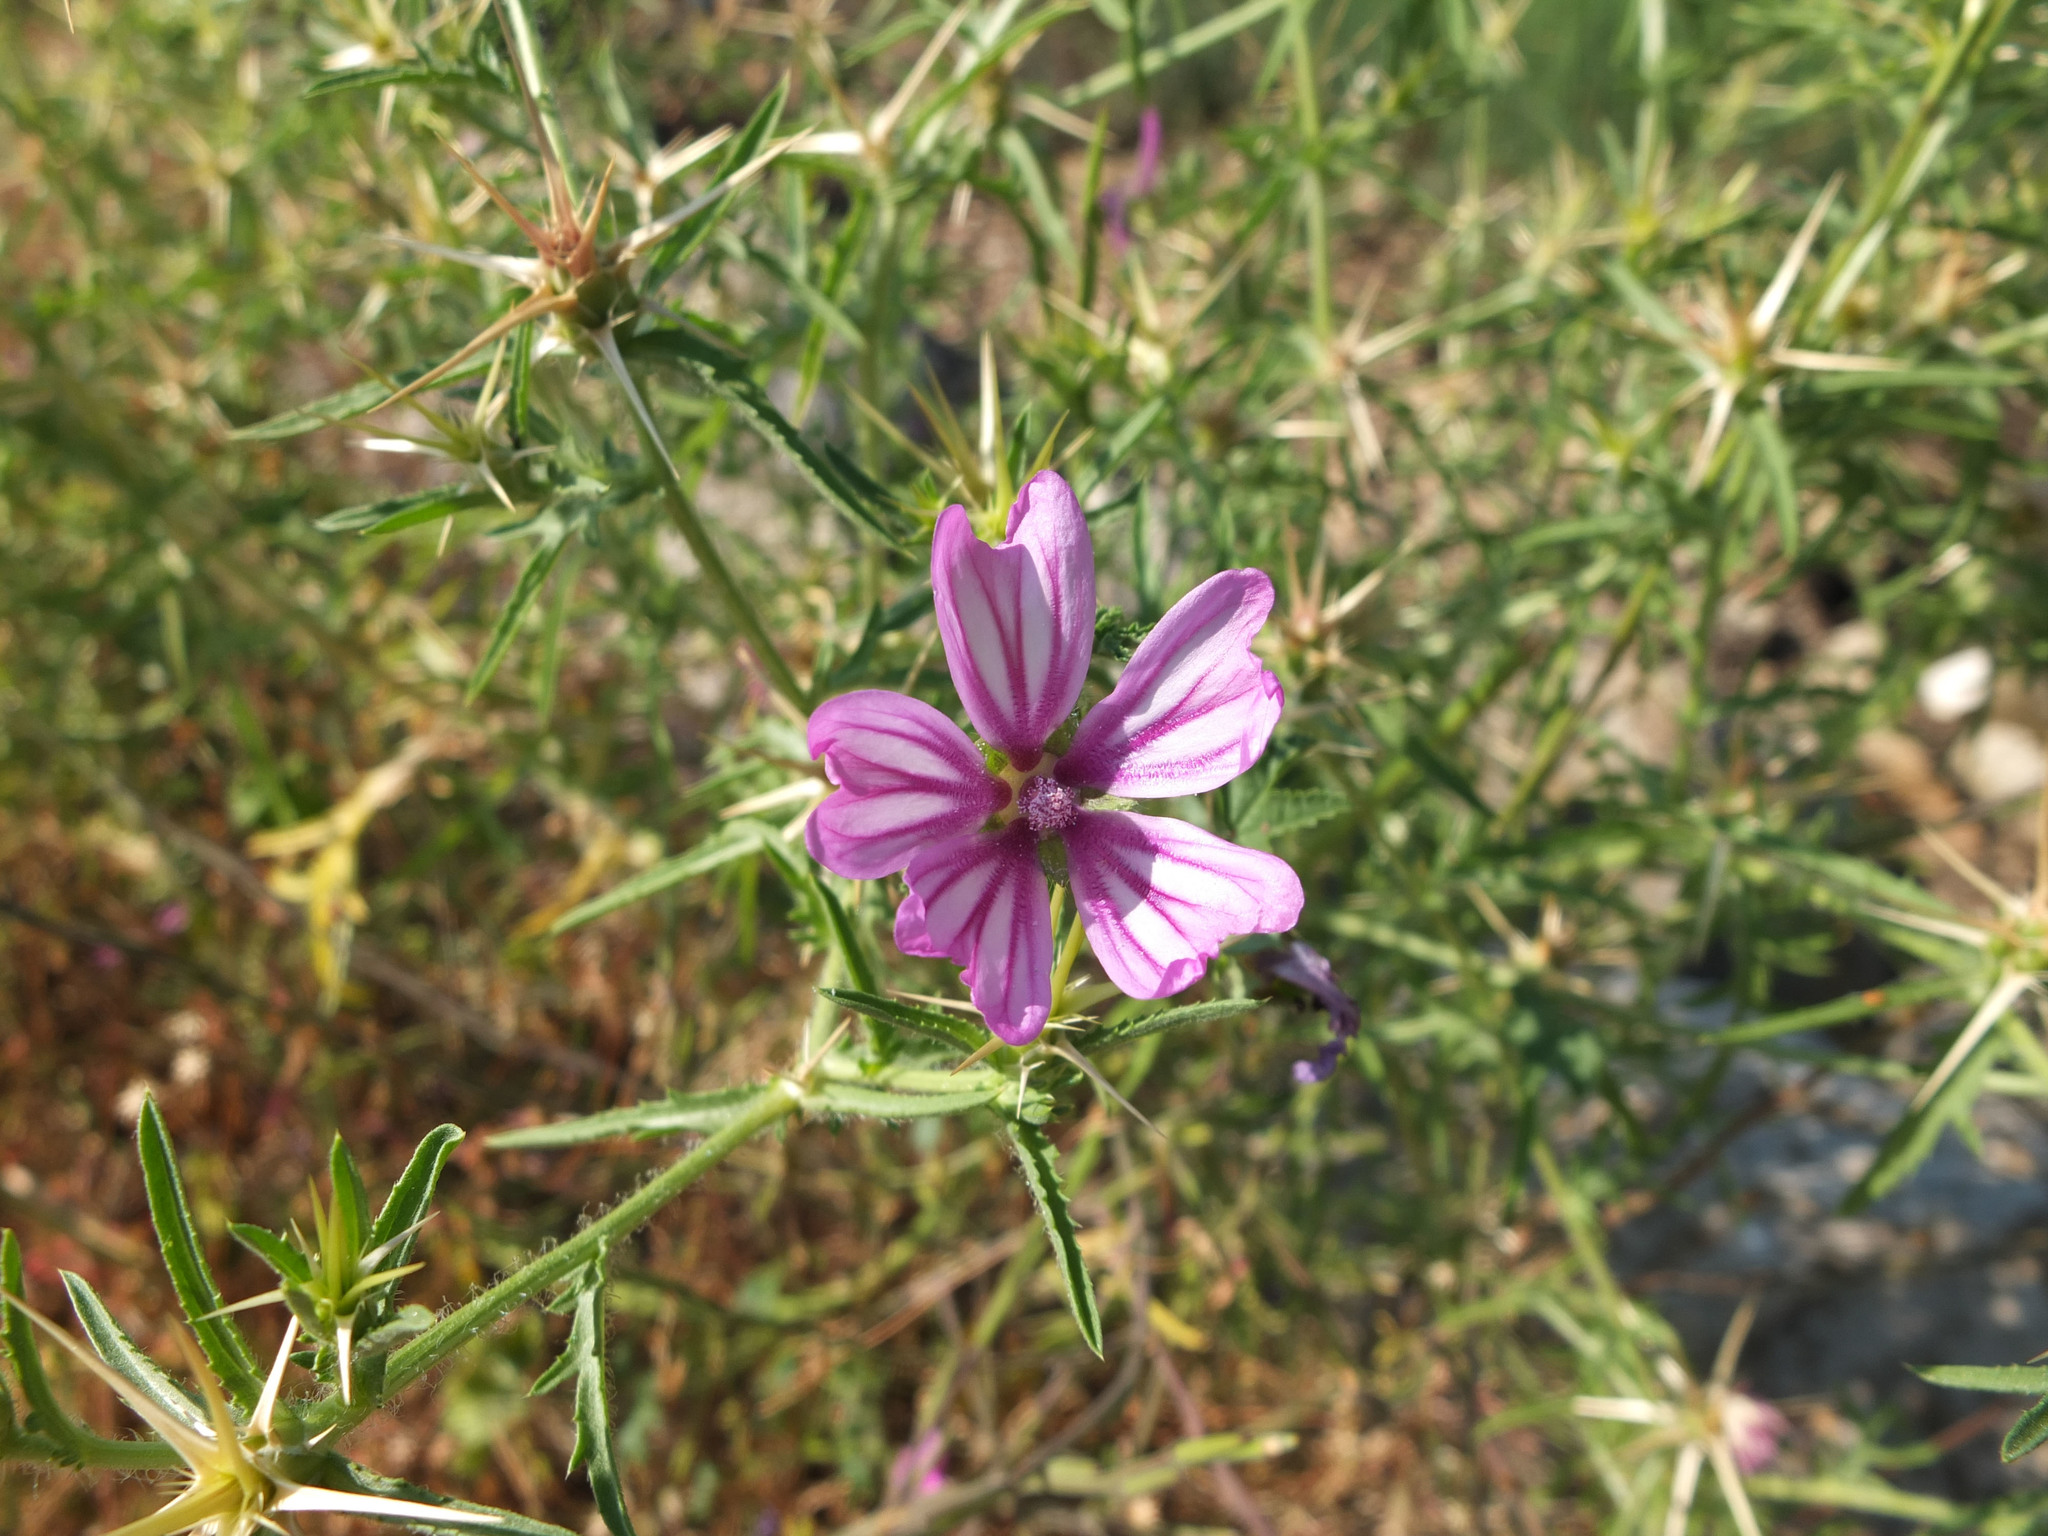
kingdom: Plantae
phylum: Tracheophyta
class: Magnoliopsida
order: Malvales
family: Malvaceae
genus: Malva
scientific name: Malva sylvestris
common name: Common mallow
